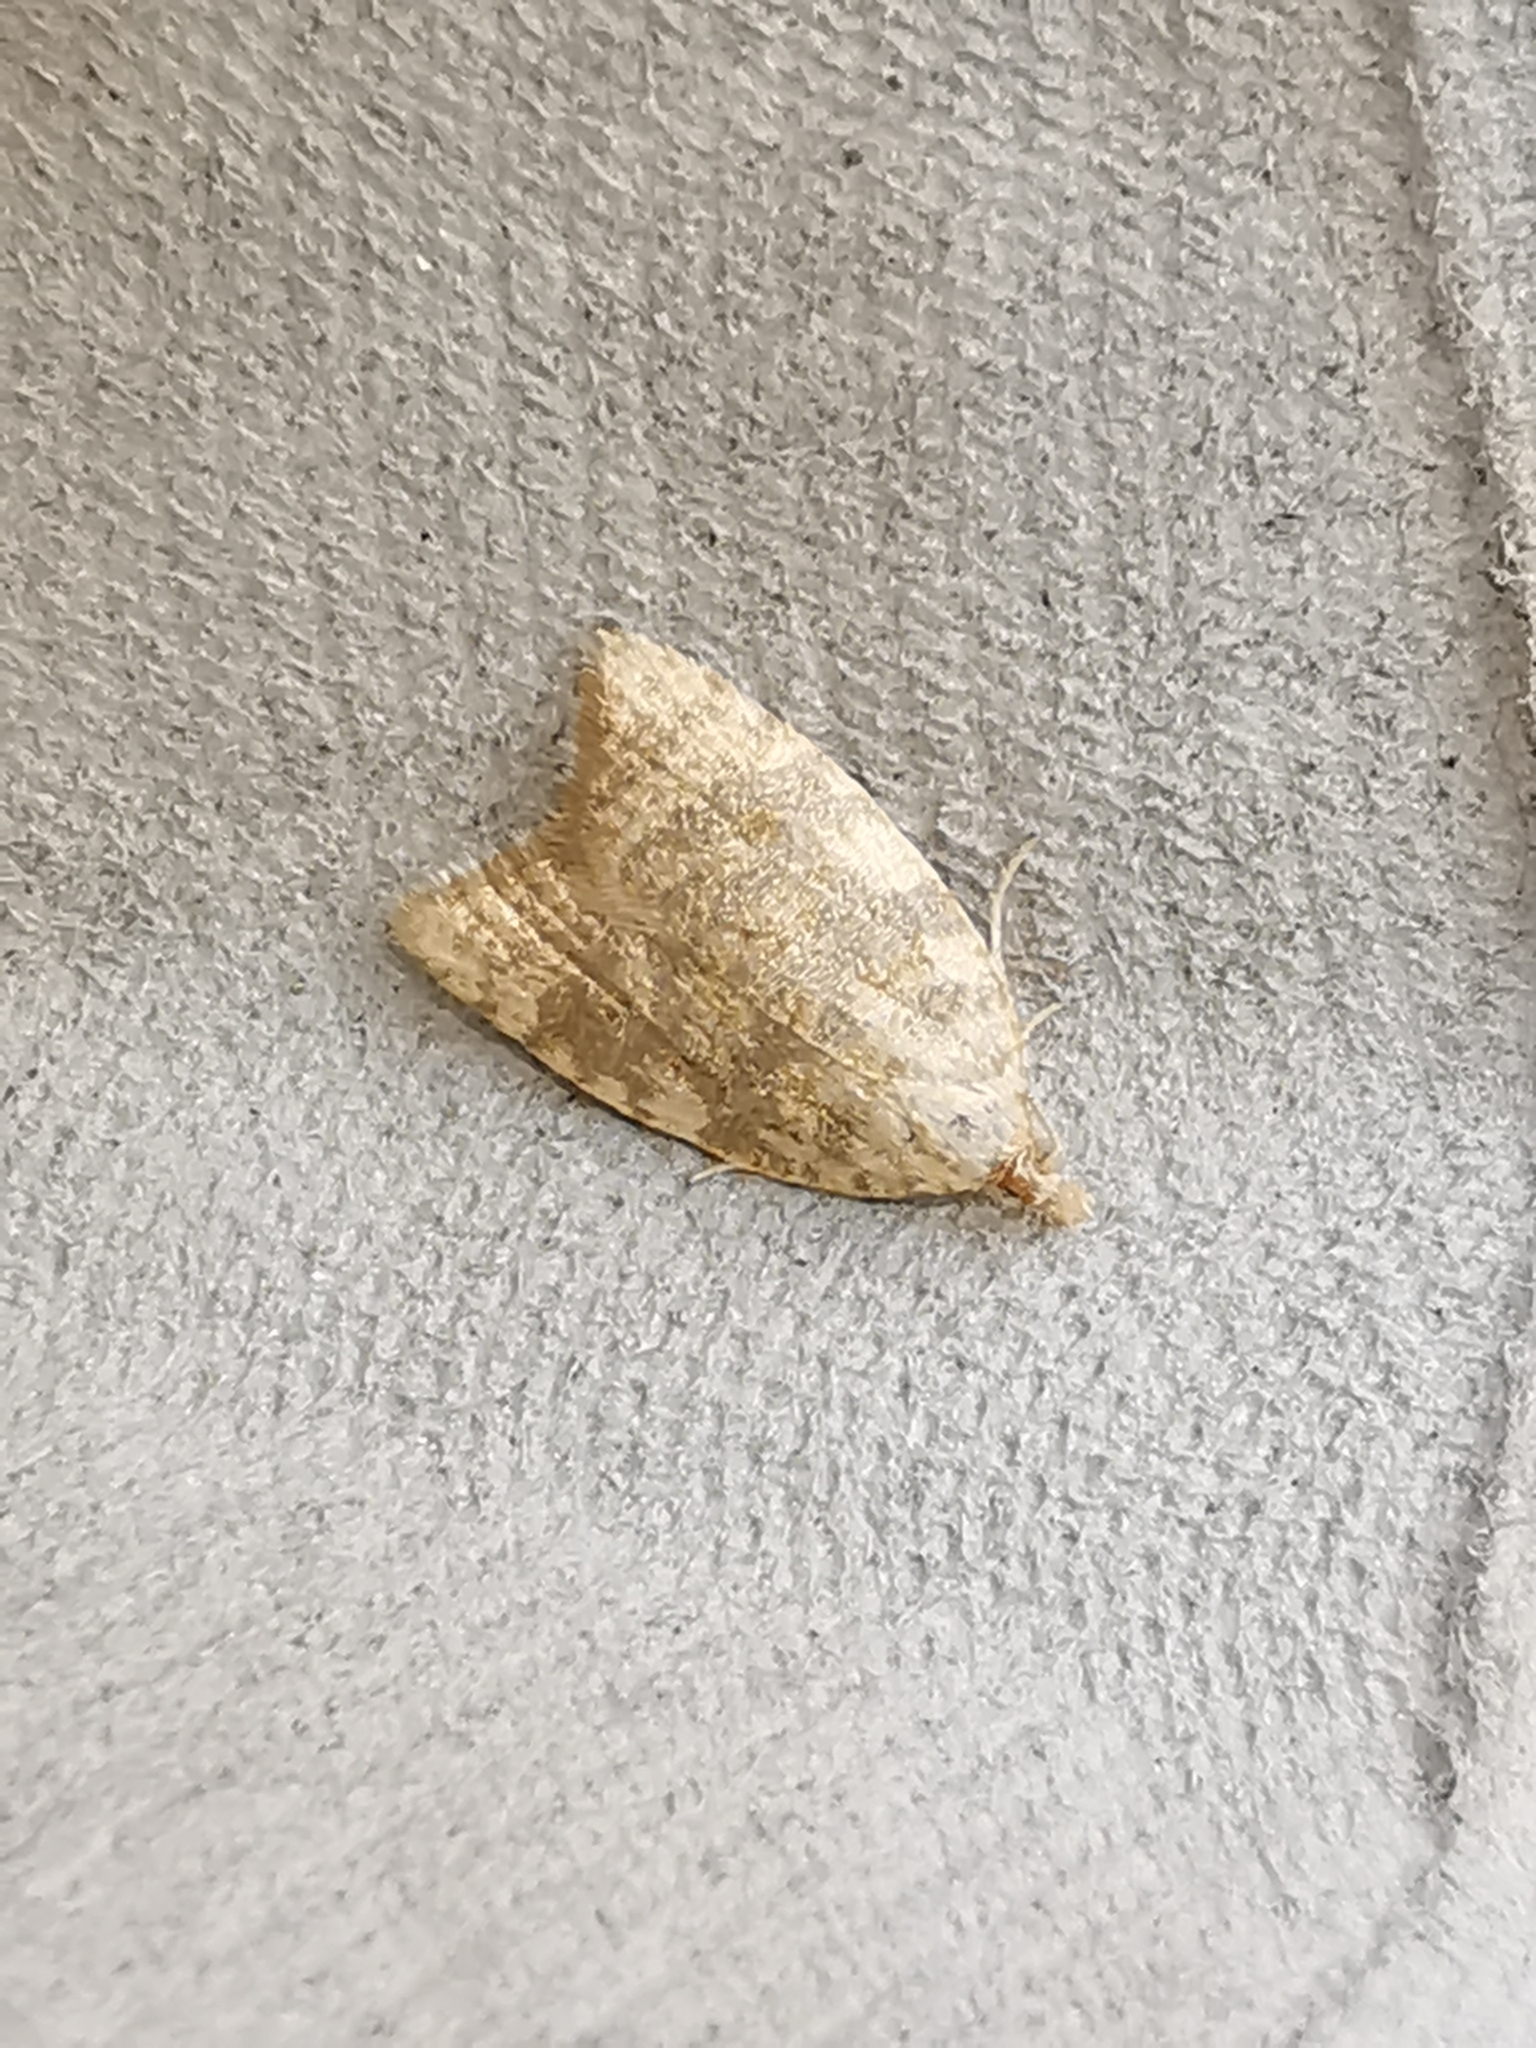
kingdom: Animalia
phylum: Arthropoda
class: Insecta
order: Lepidoptera
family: Tortricidae
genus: Aleimma
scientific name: Aleimma loeflingiana
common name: Yellow oak button
